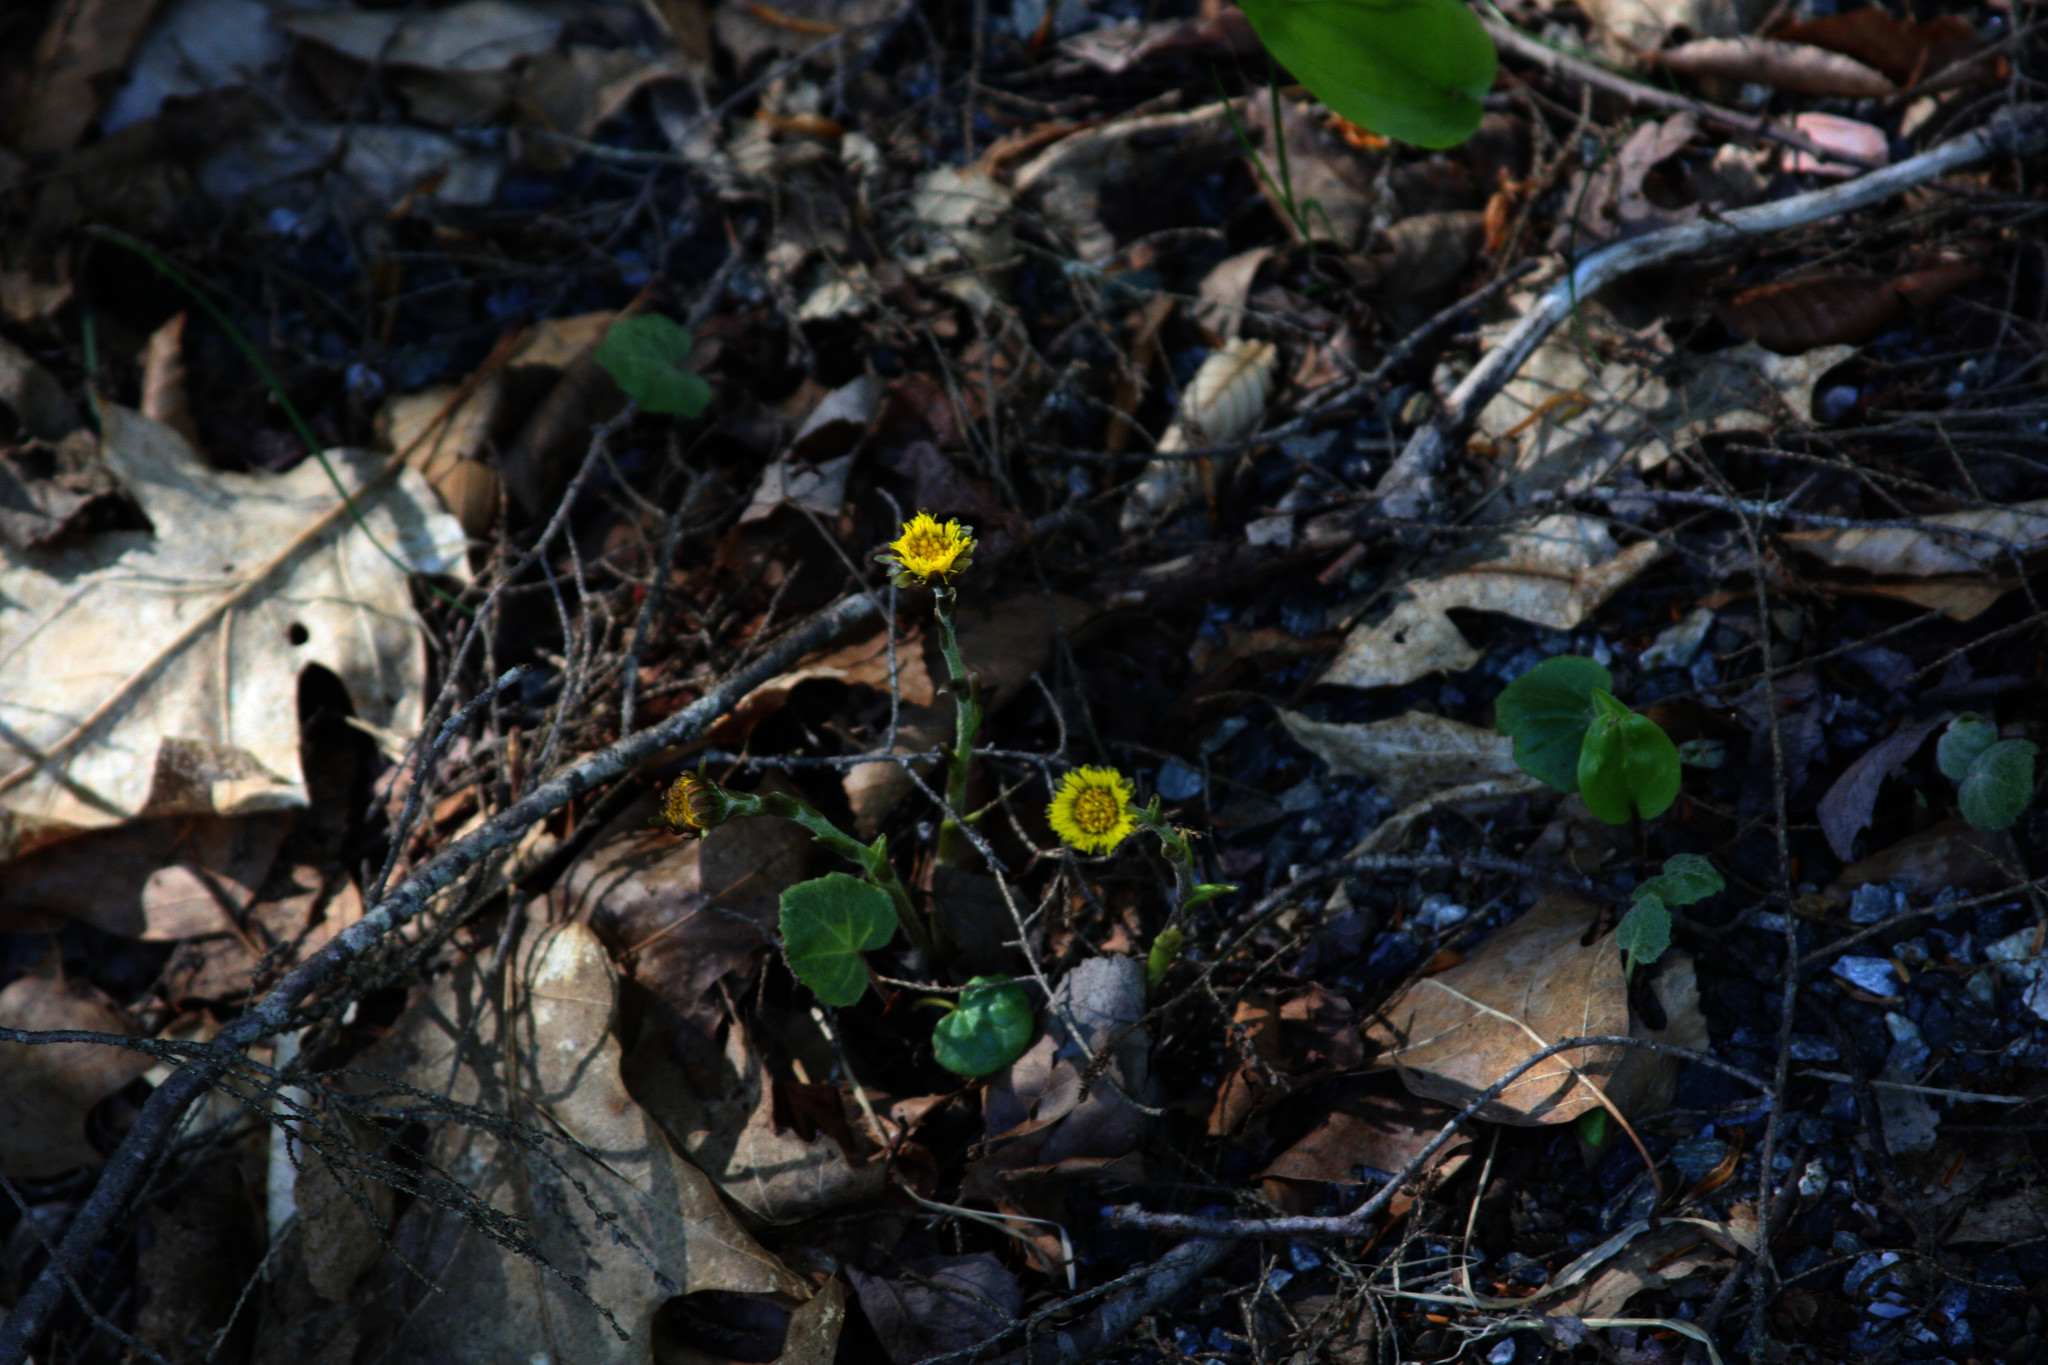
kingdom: Plantae
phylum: Tracheophyta
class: Magnoliopsida
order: Asterales
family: Asteraceae
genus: Tussilago
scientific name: Tussilago farfara
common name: Coltsfoot
